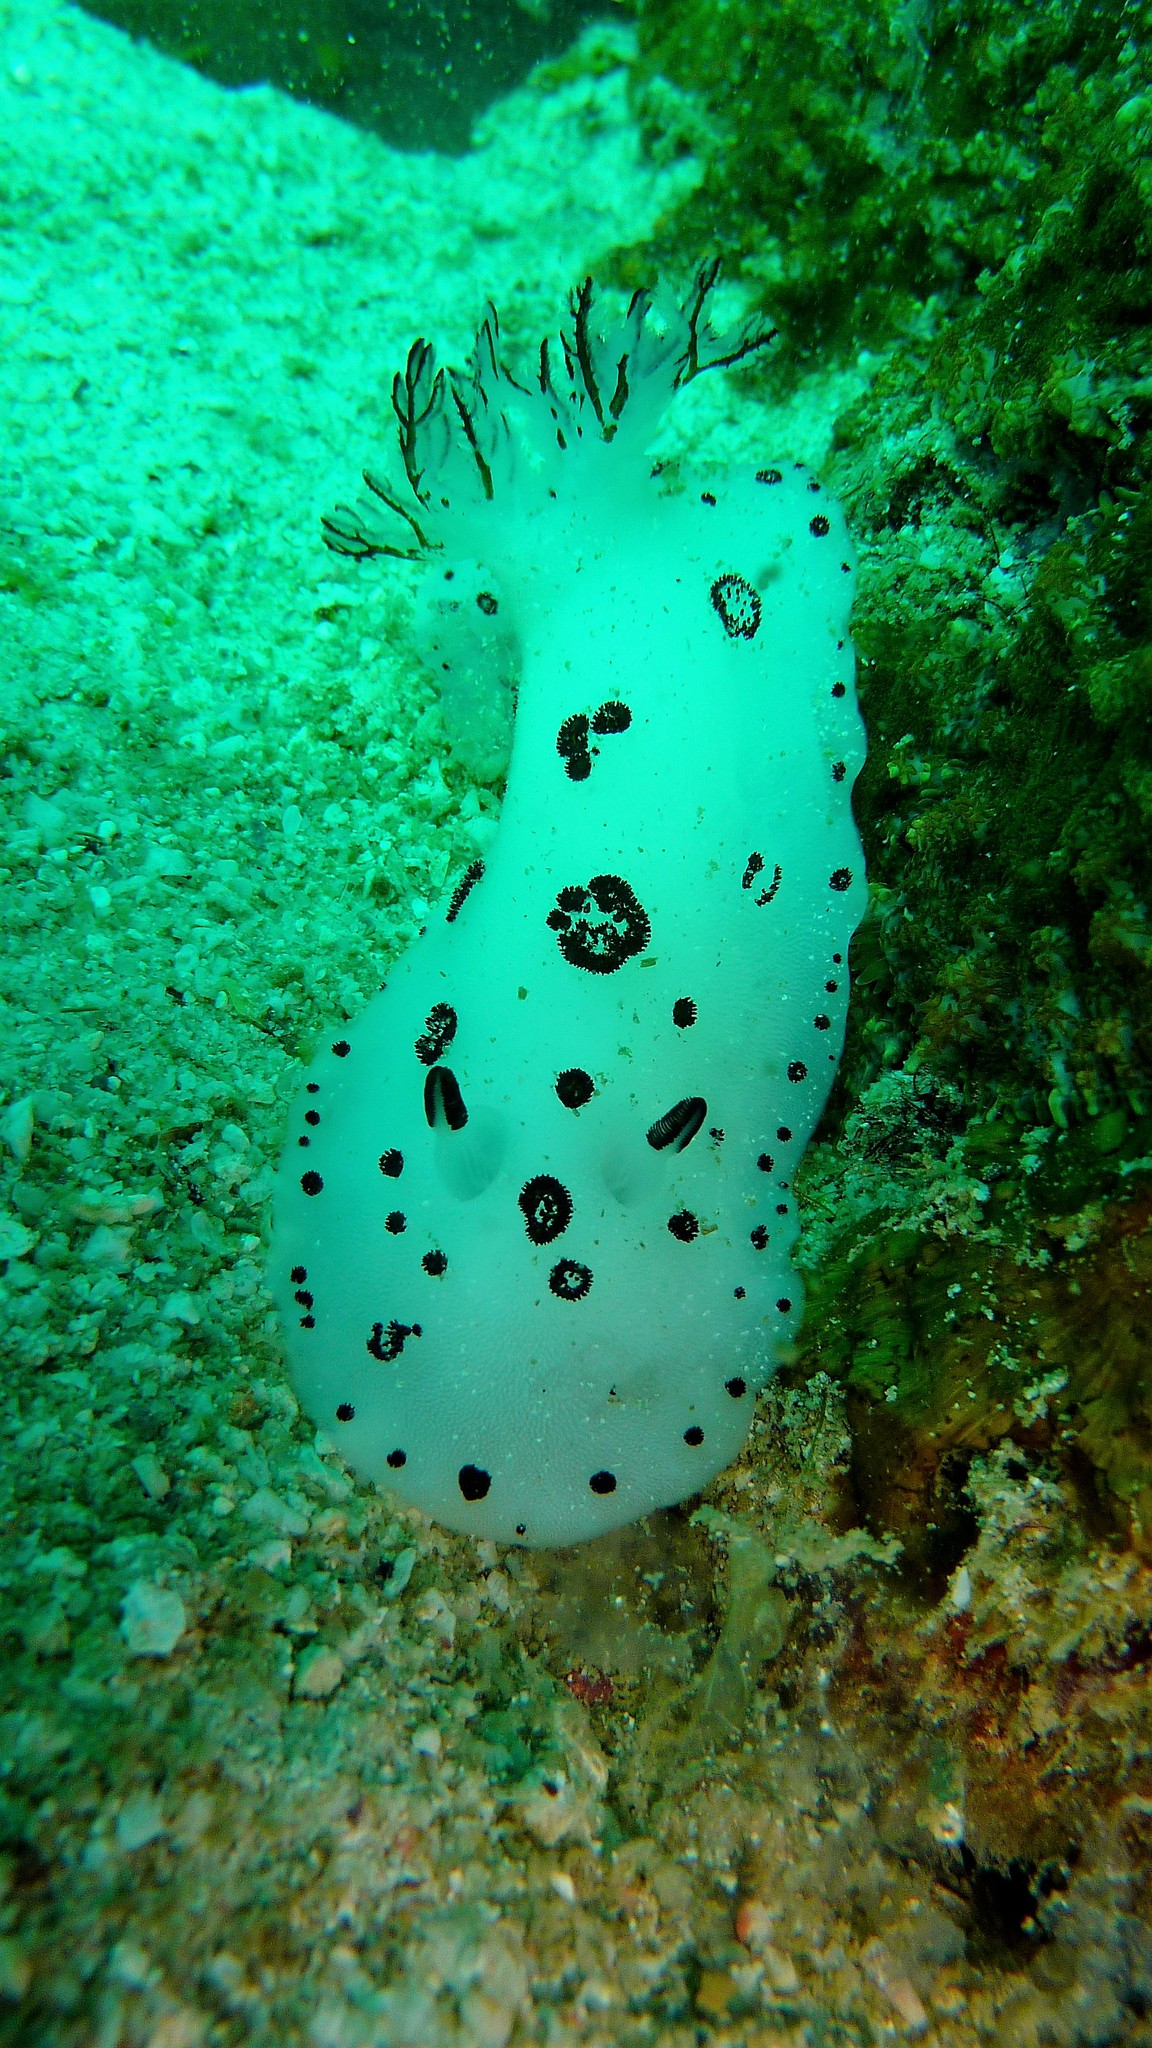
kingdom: Animalia
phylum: Mollusca
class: Gastropoda
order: Nudibranchia
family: Discodorididae
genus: Jorunna
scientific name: Jorunna funebris
